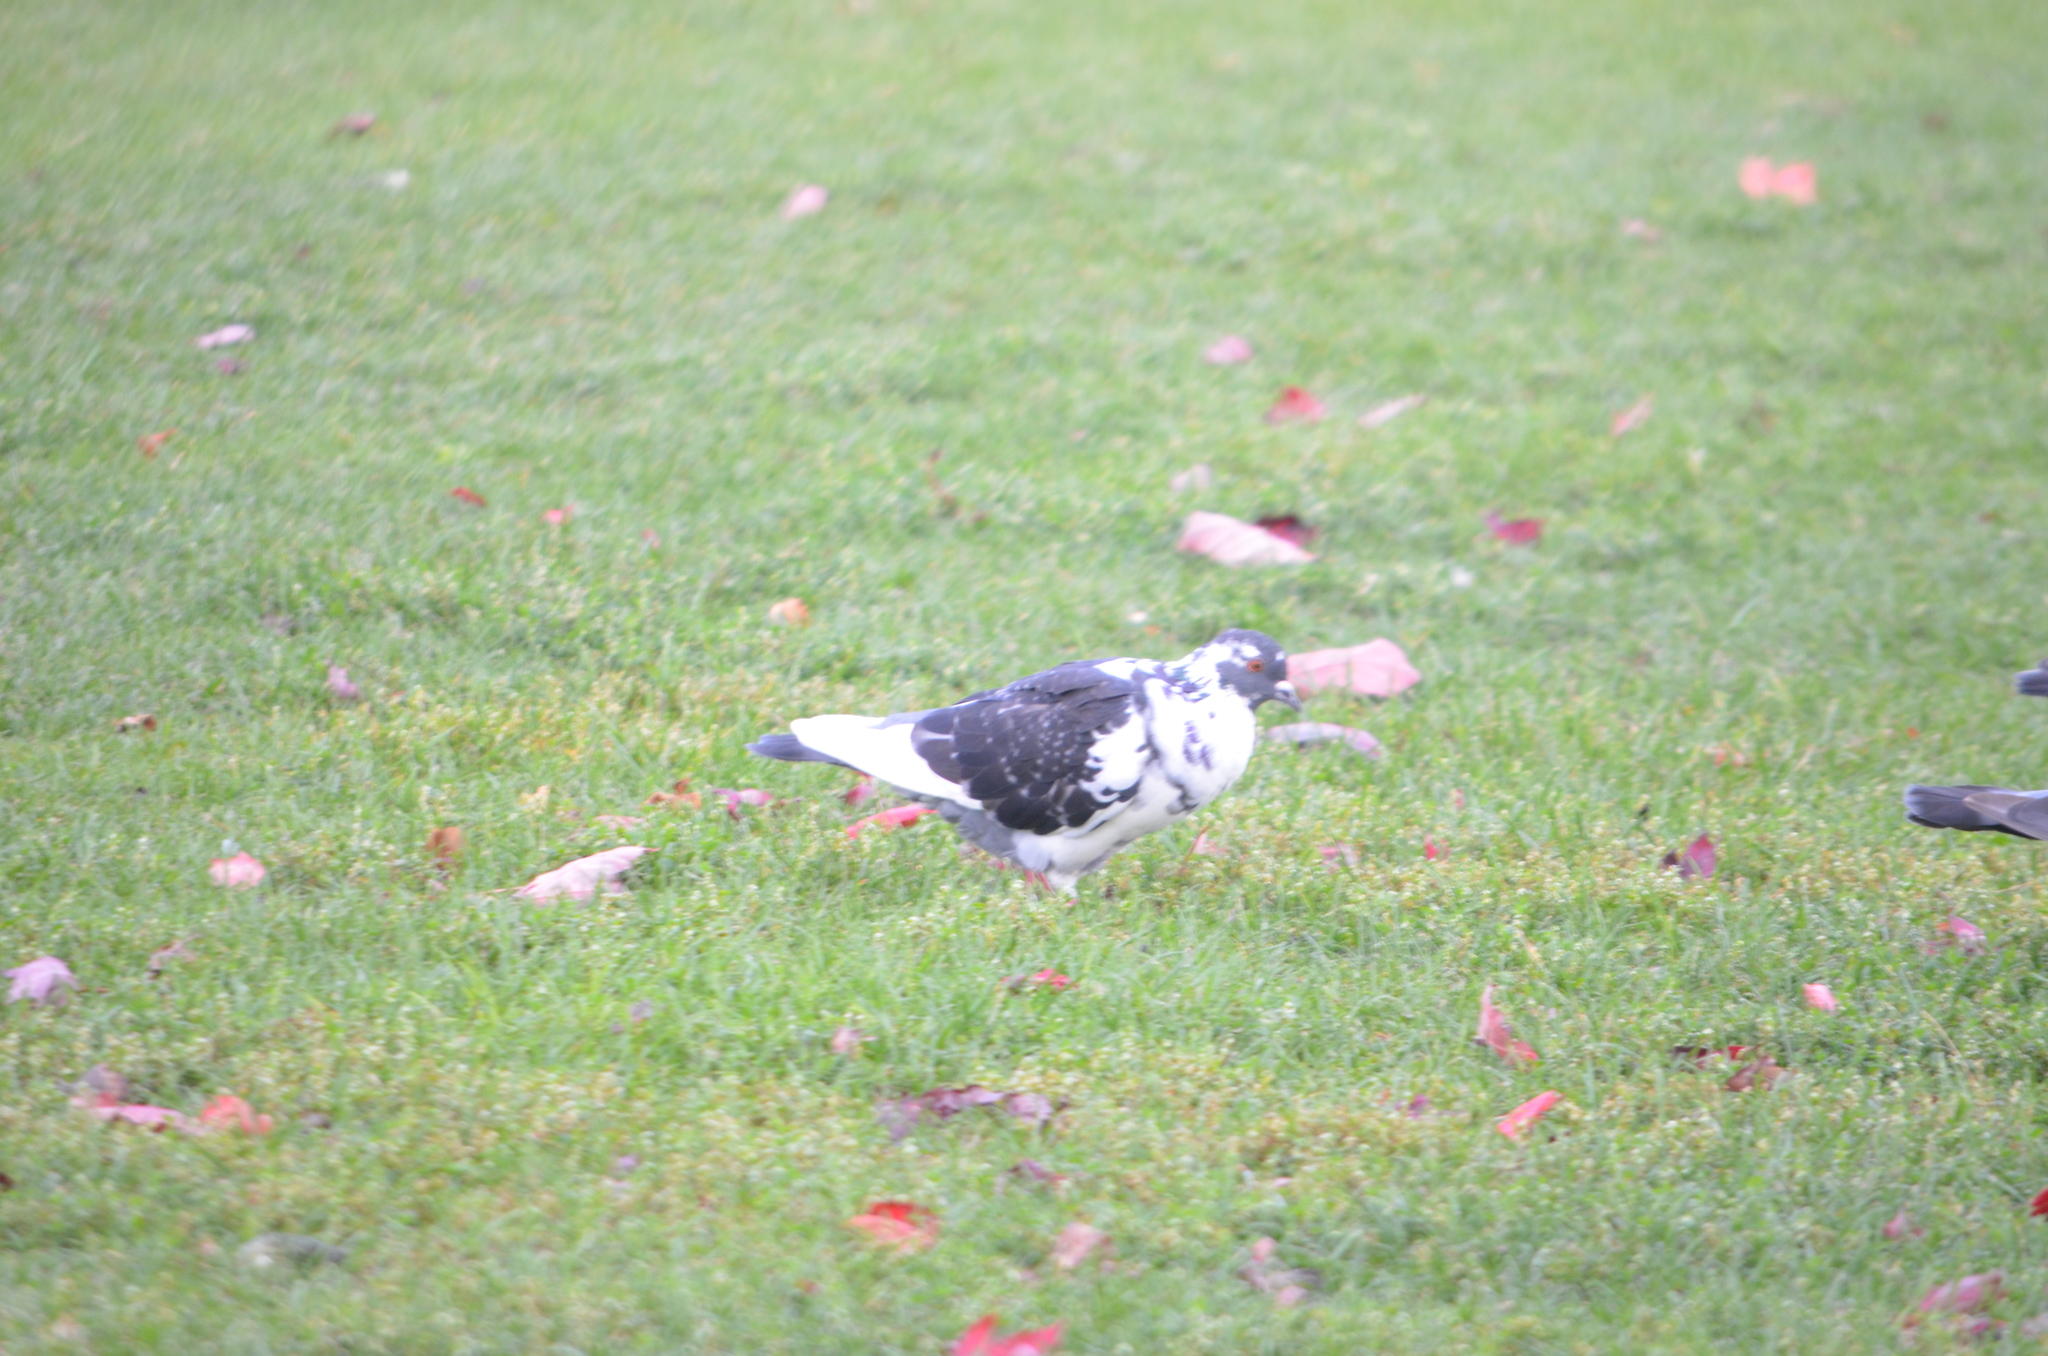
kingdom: Animalia
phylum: Chordata
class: Aves
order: Columbiformes
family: Columbidae
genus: Columba
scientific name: Columba livia
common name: Rock pigeon
